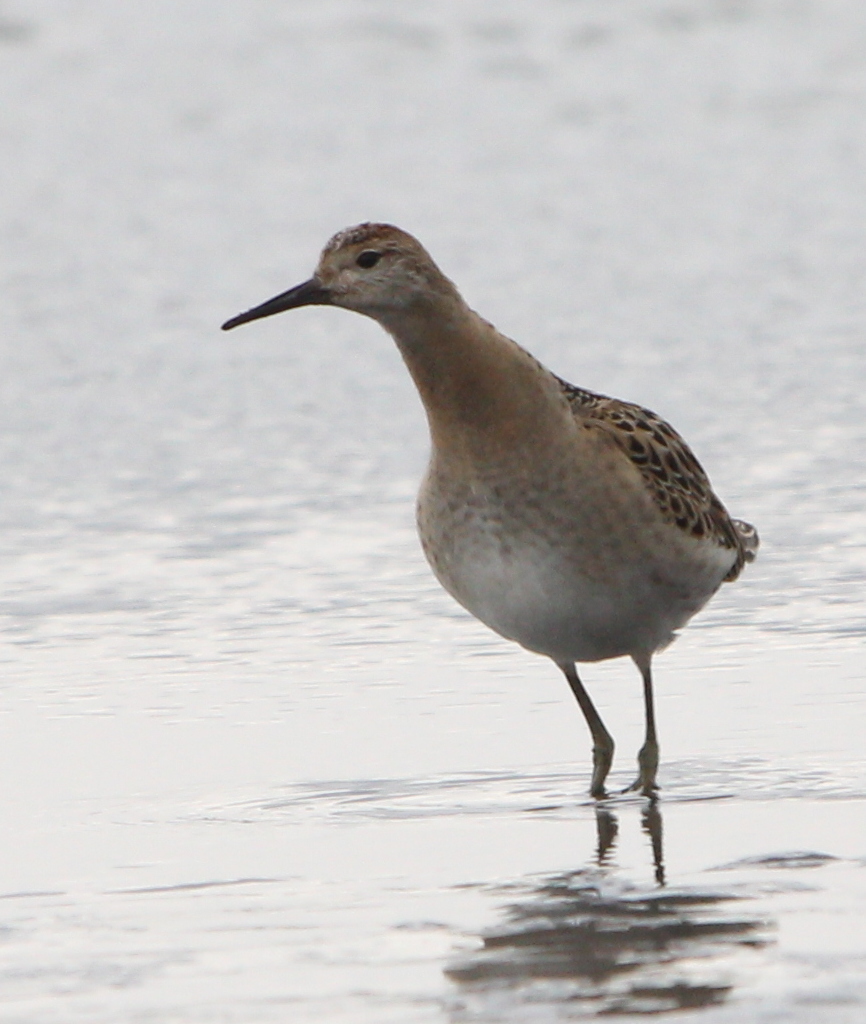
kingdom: Animalia
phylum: Chordata
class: Aves
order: Charadriiformes
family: Scolopacidae
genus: Calidris
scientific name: Calidris pugnax
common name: Ruff
